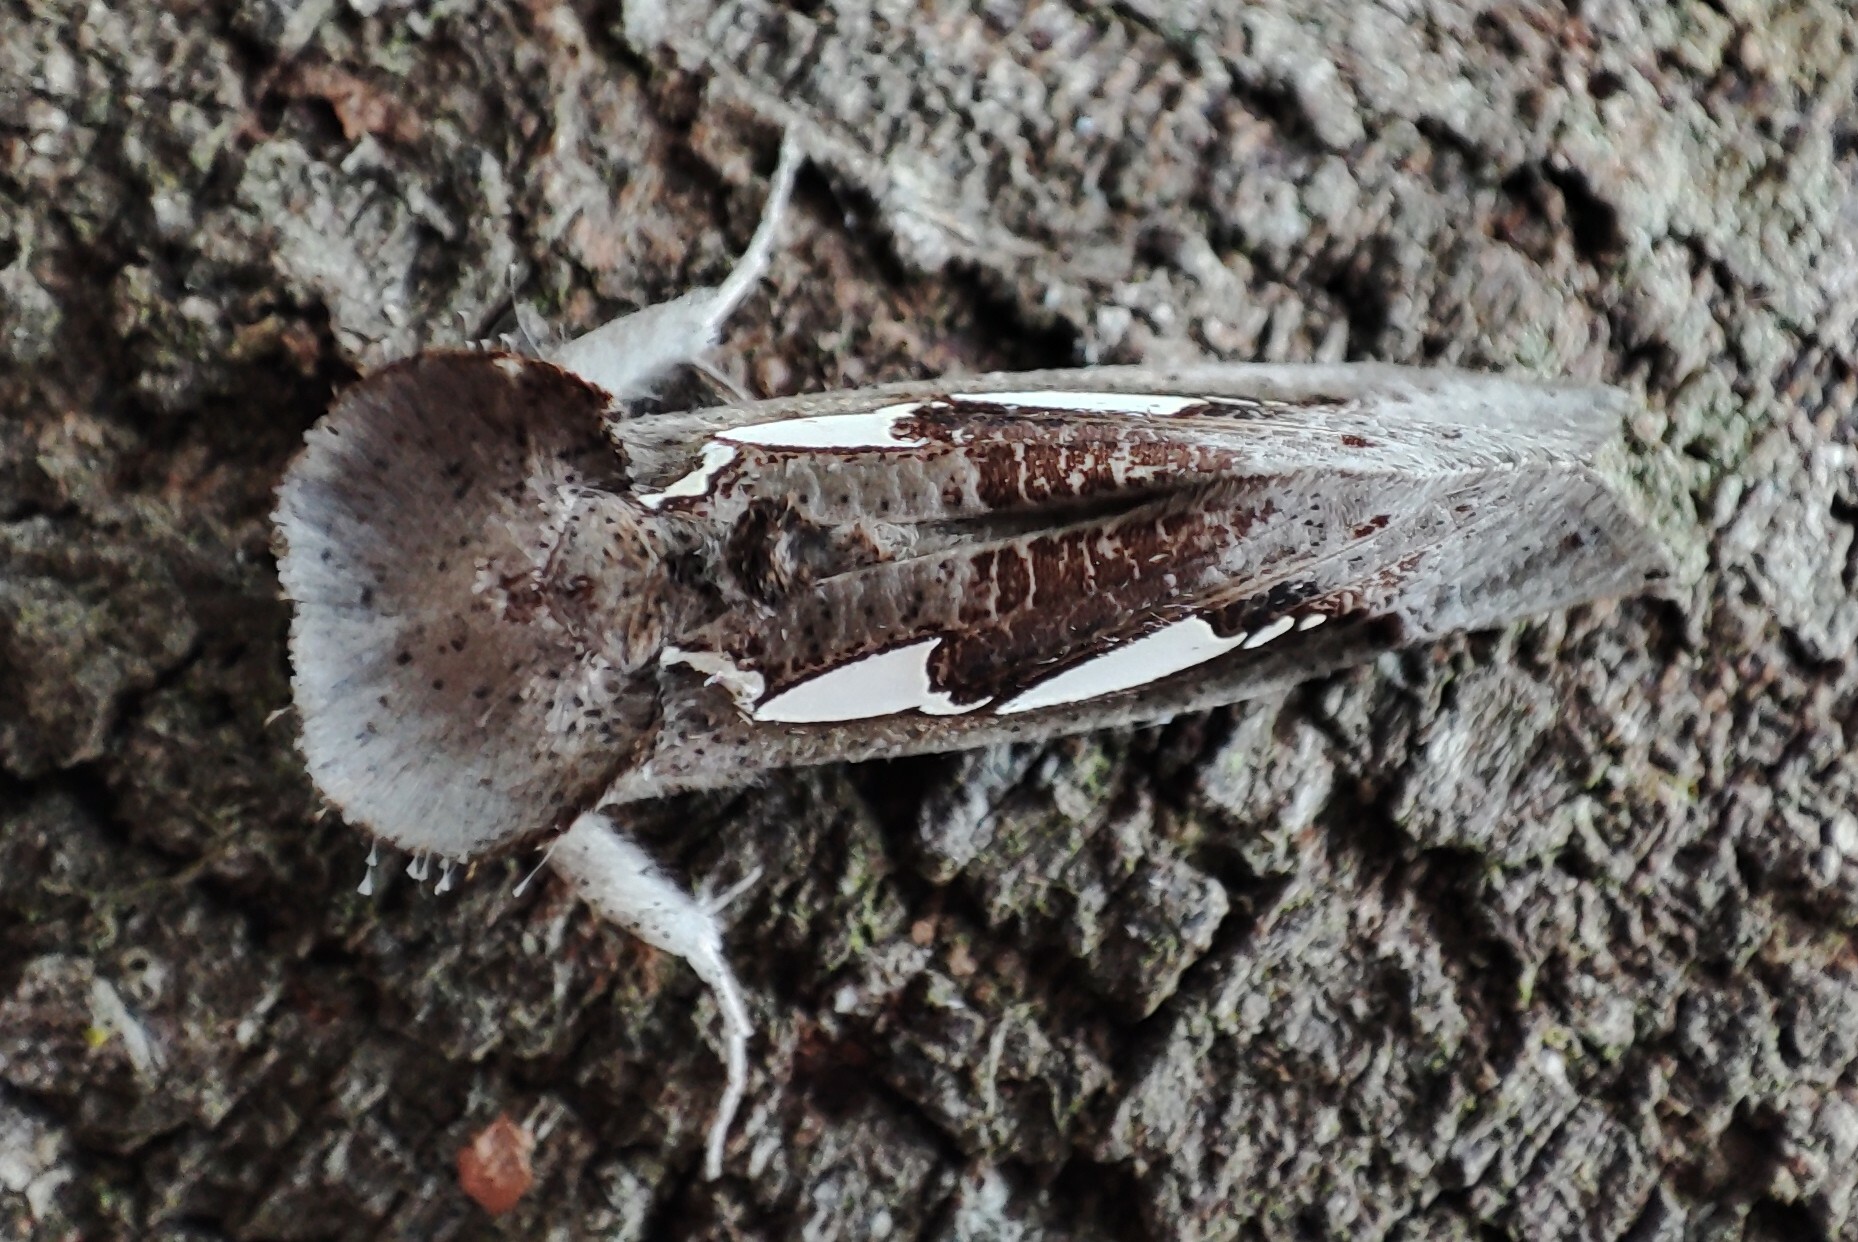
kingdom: Animalia
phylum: Arthropoda
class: Insecta
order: Lepidoptera
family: Erebidae
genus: Antiophlebia
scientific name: Antiophlebia bracteata
